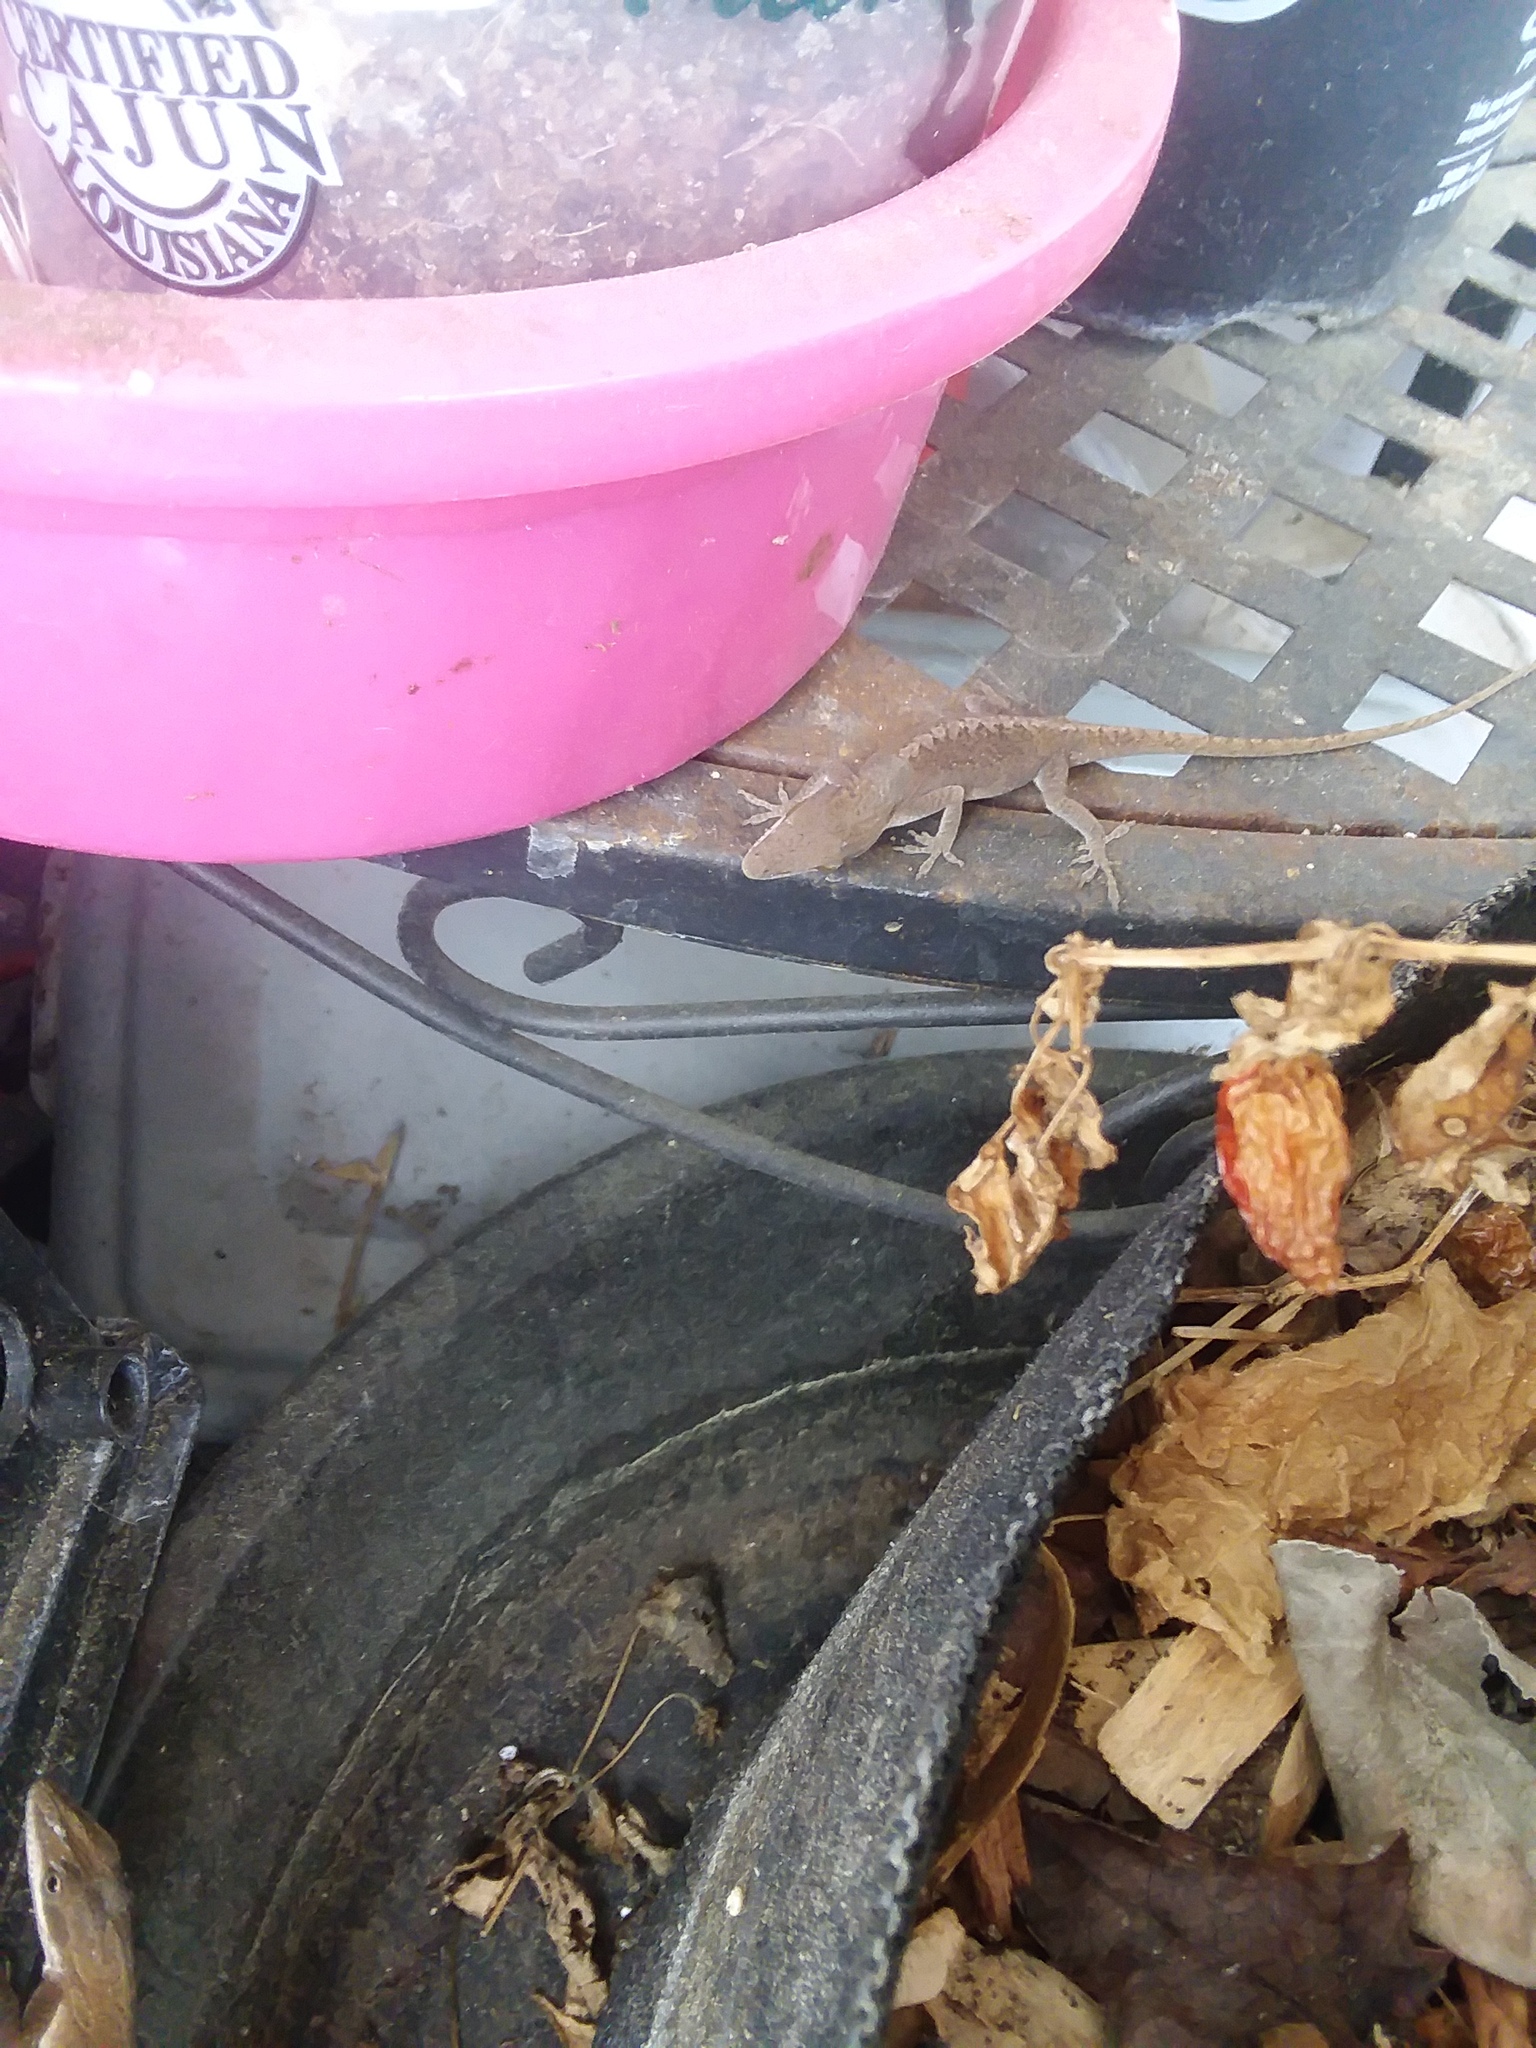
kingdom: Animalia
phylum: Chordata
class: Squamata
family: Dactyloidae
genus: Anolis
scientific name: Anolis carolinensis
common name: Green anole
